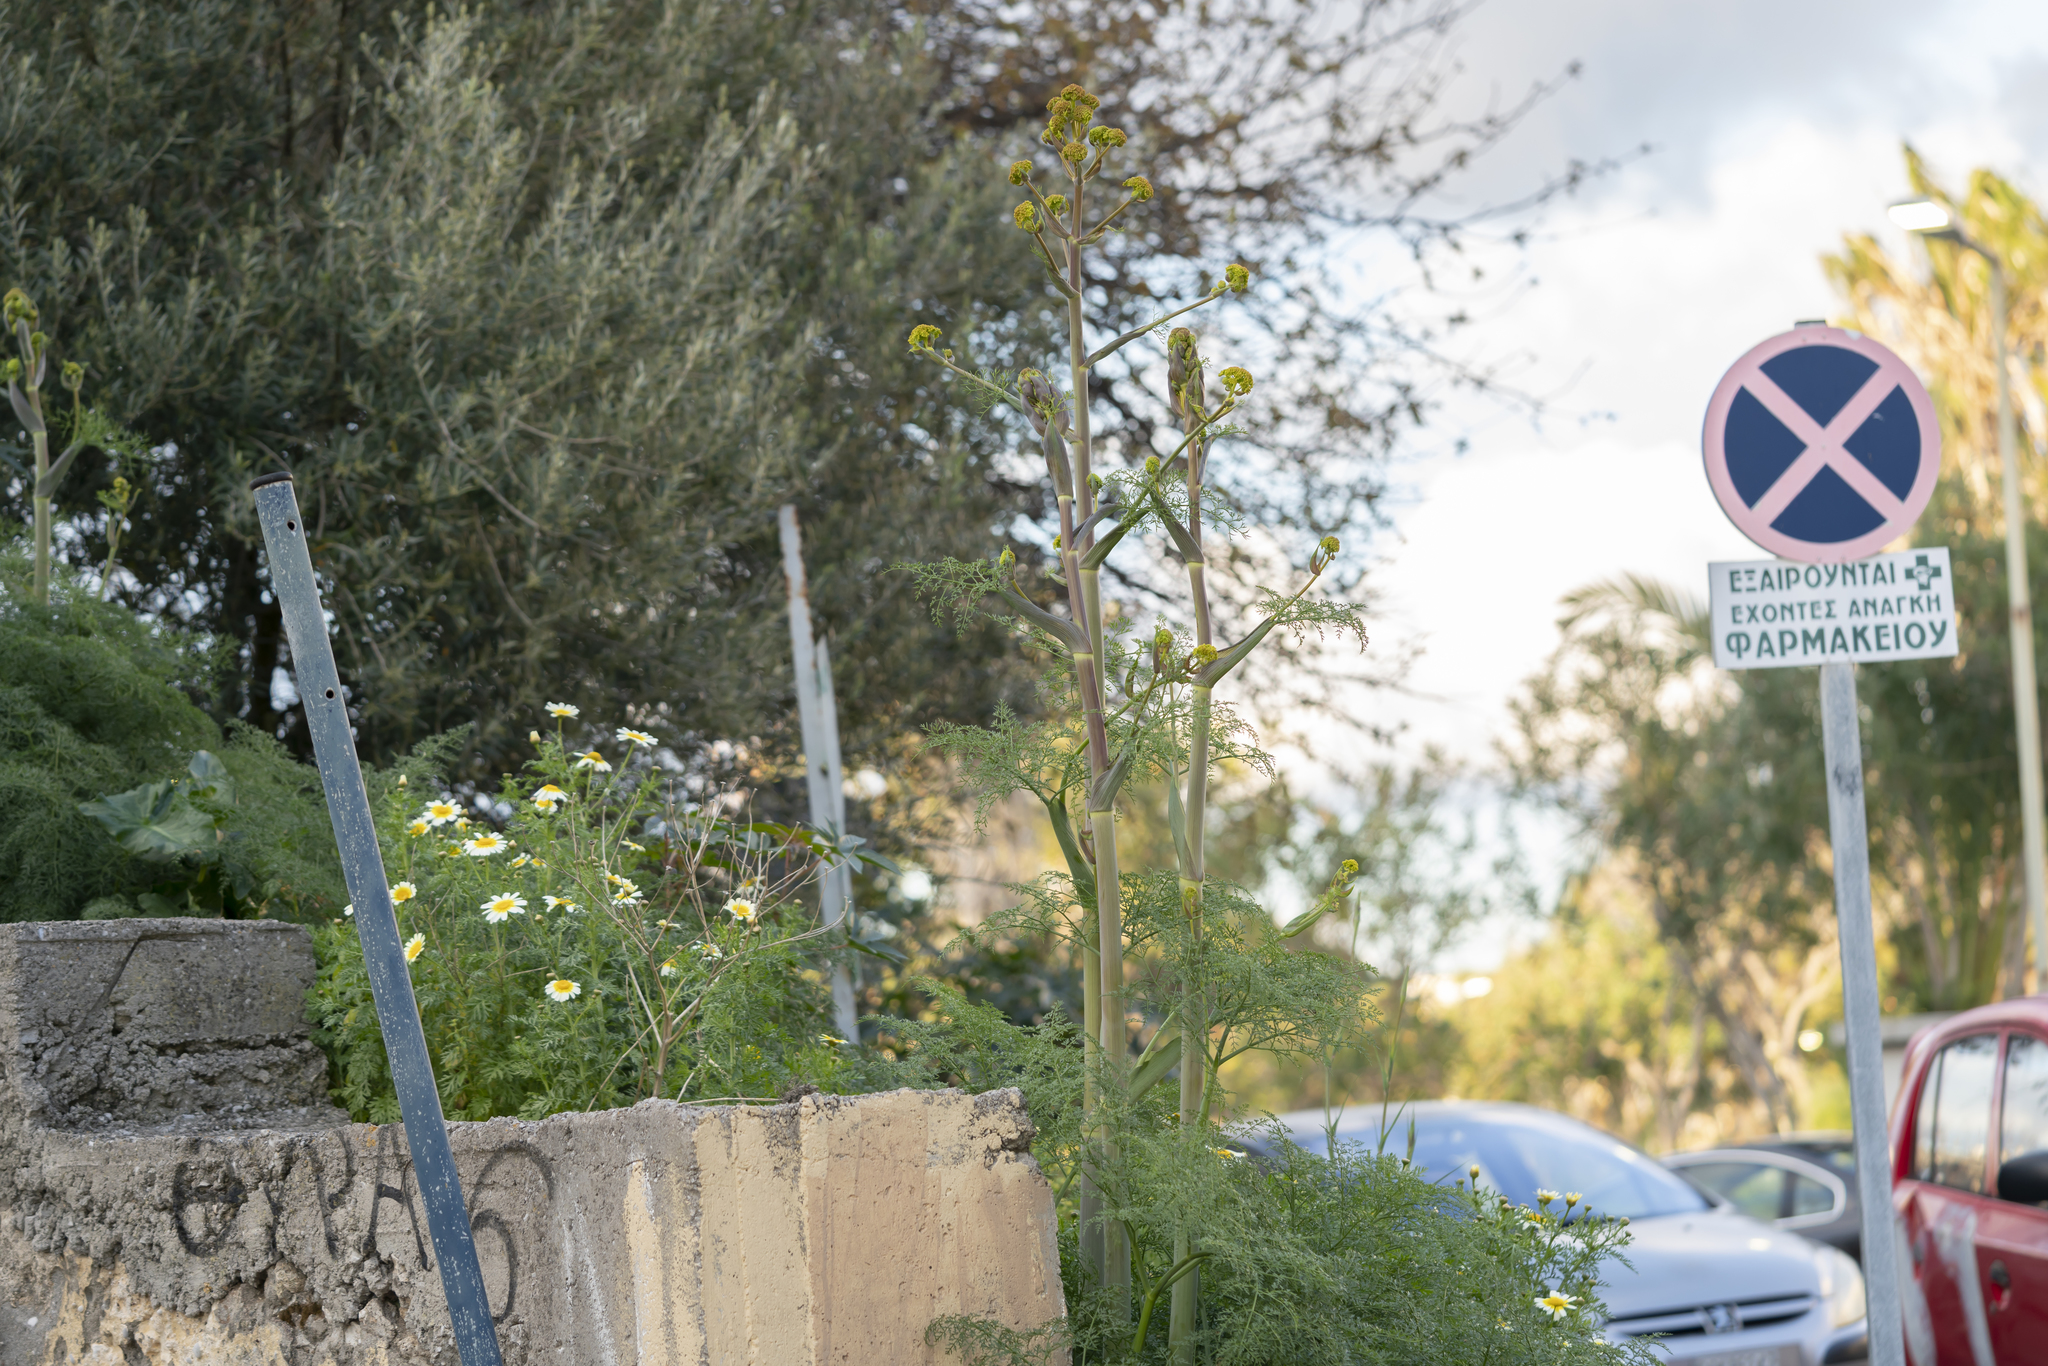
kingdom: Plantae
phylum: Tracheophyta
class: Magnoliopsida
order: Apiales
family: Apiaceae
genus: Ferula
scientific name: Ferula tingitana
